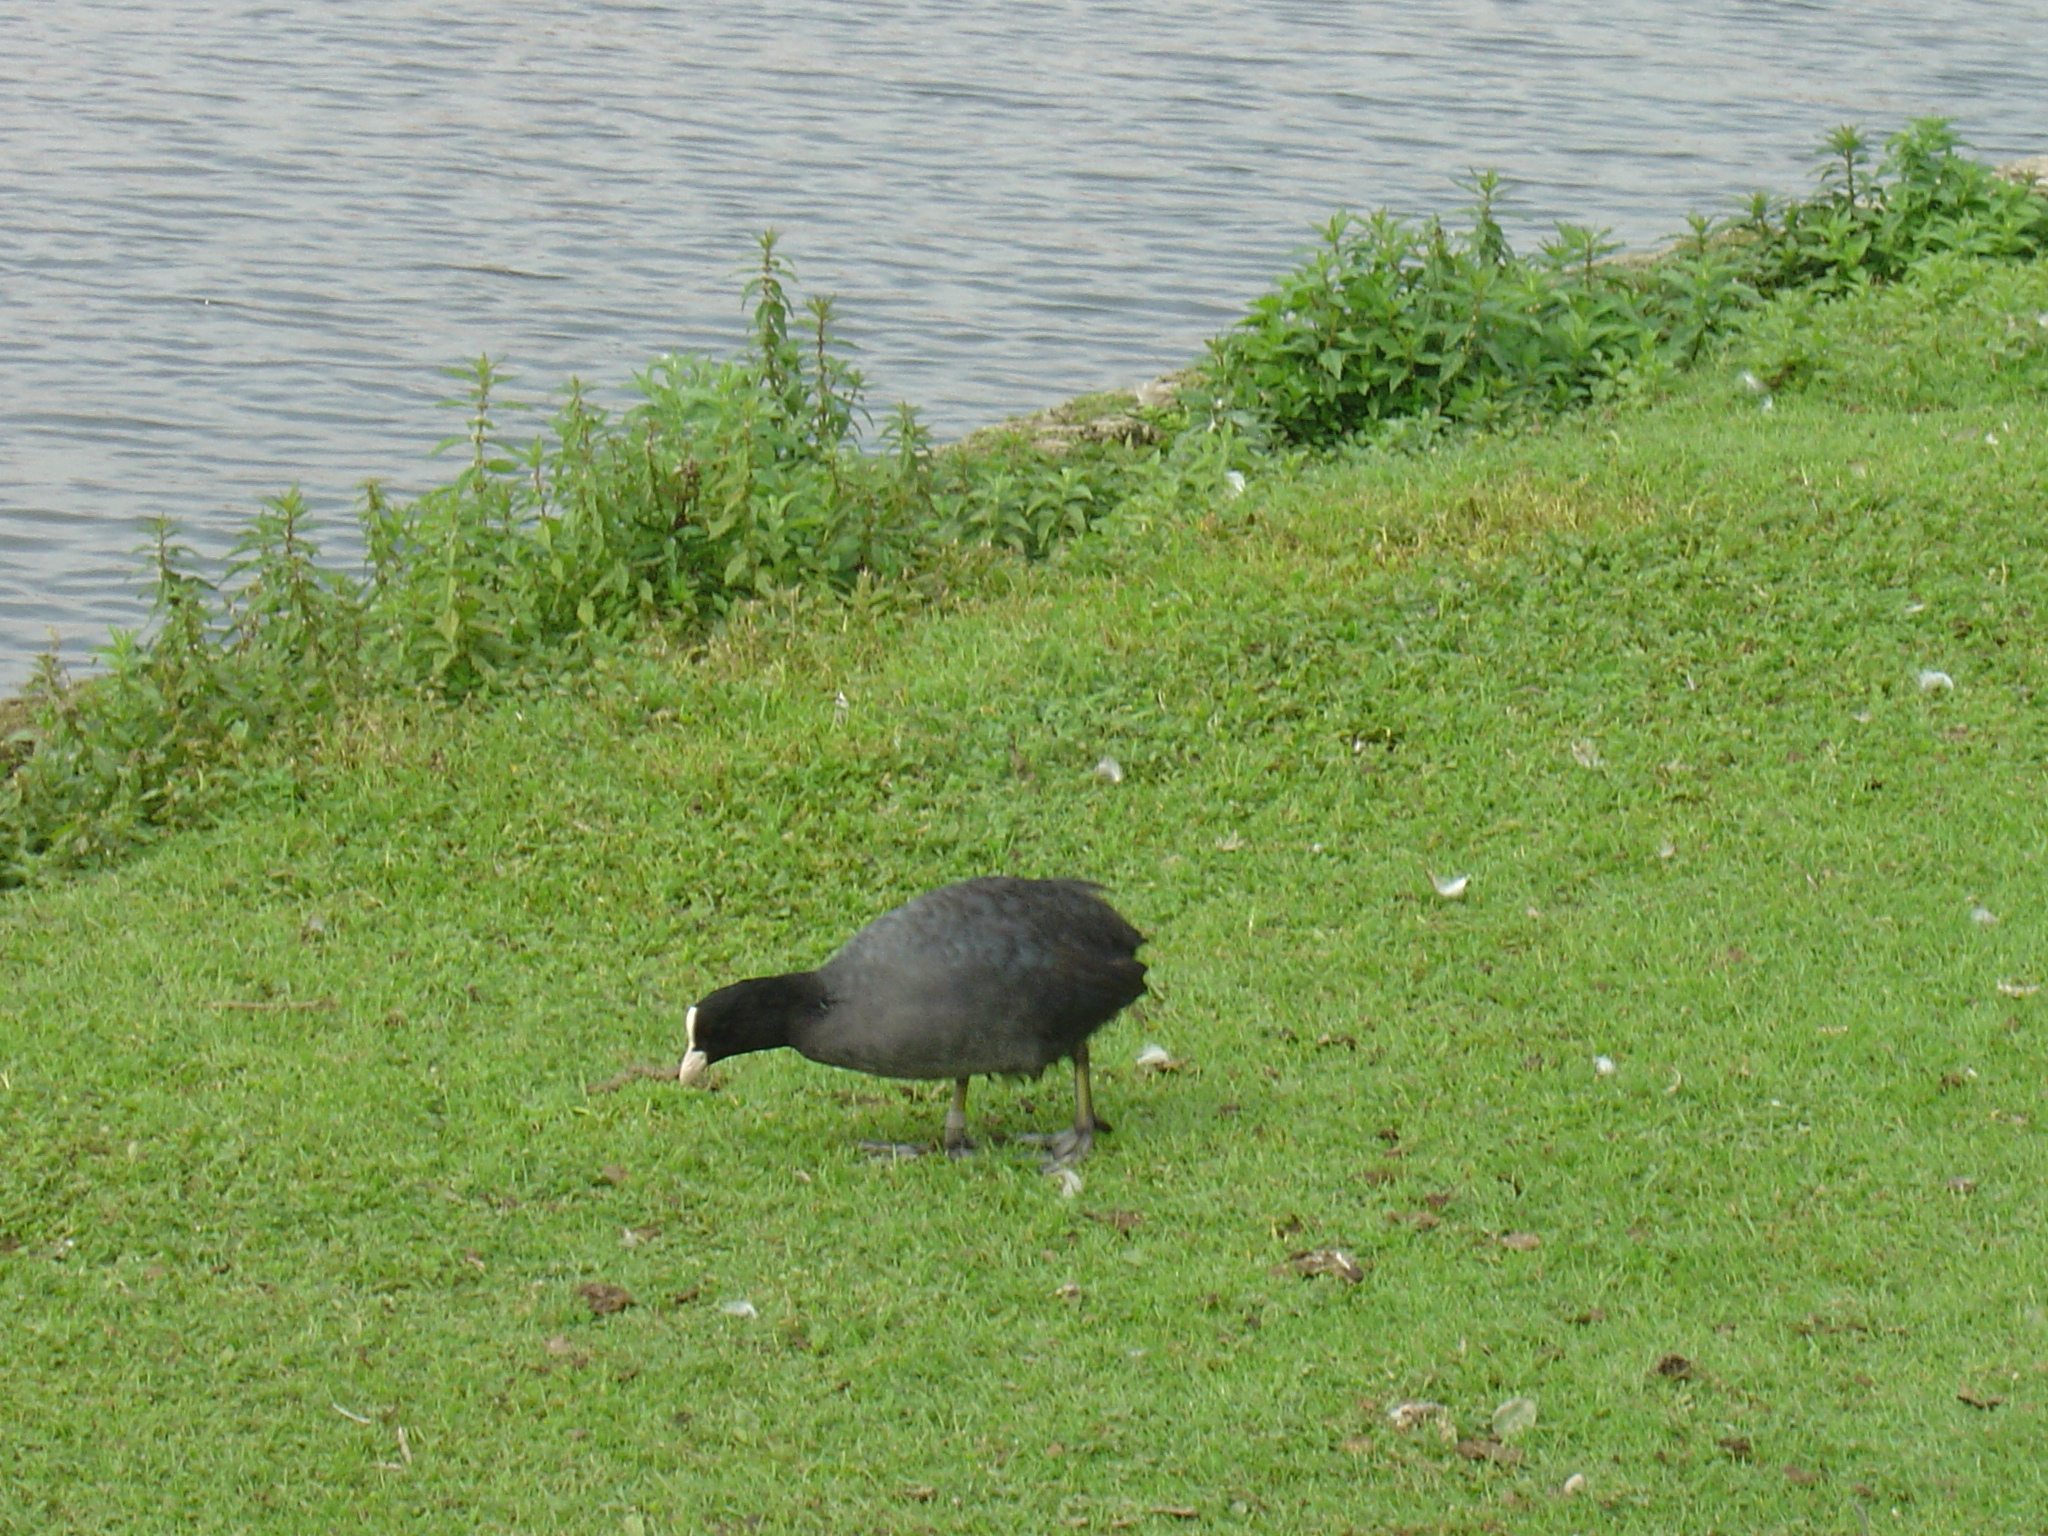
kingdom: Animalia
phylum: Chordata
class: Aves
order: Gruiformes
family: Rallidae
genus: Fulica
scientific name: Fulica atra
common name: Eurasian coot
